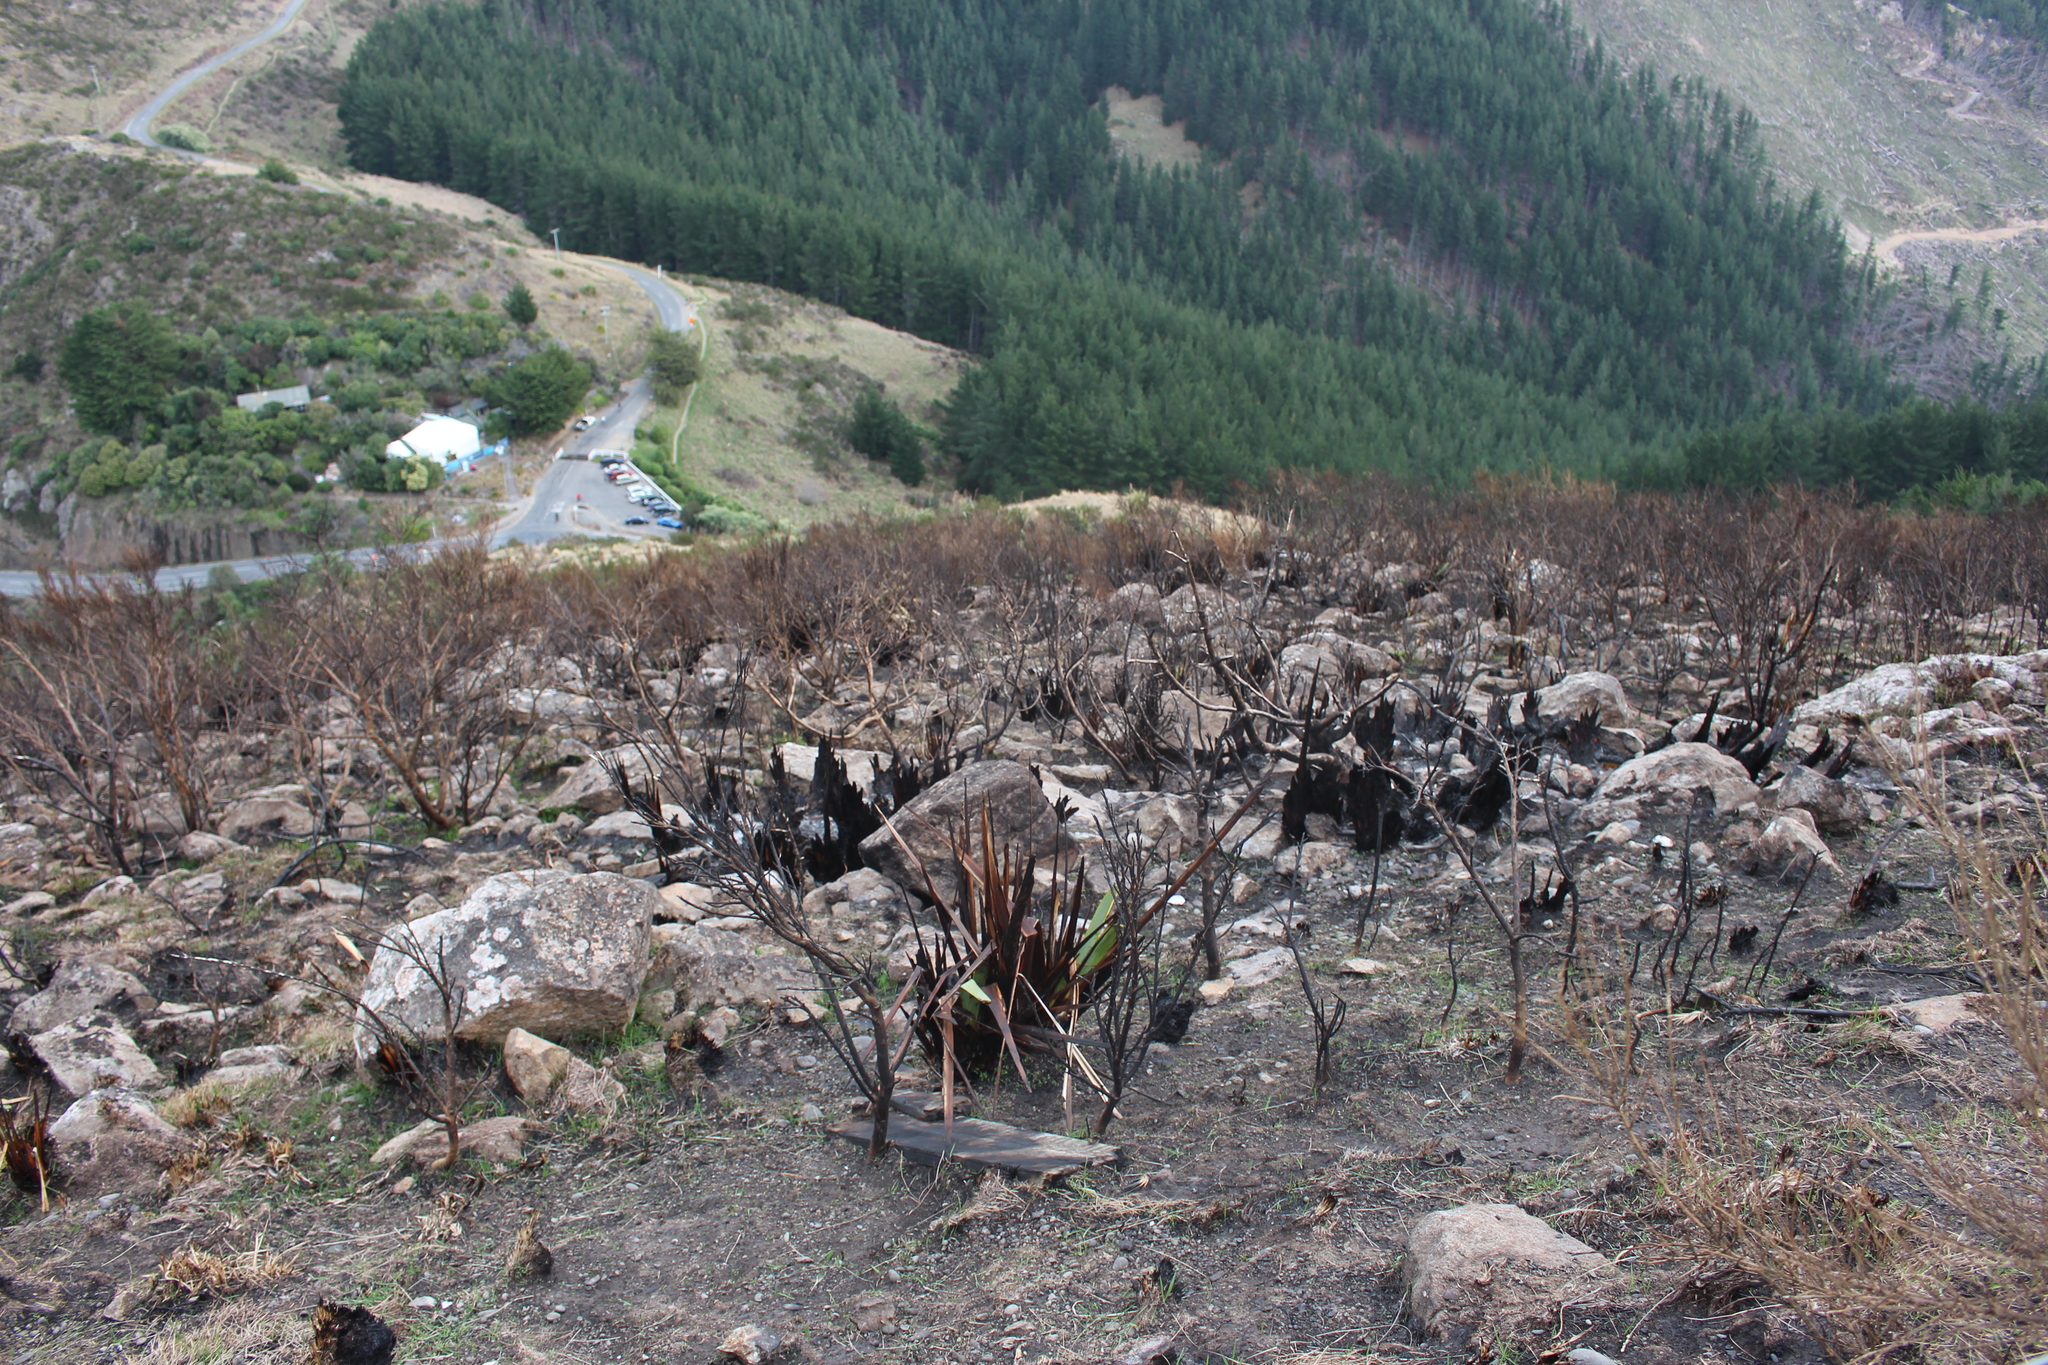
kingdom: Plantae
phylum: Tracheophyta
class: Liliopsida
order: Asparagales
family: Asphodelaceae
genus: Phormium
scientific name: Phormium tenax
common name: New zealand flax
